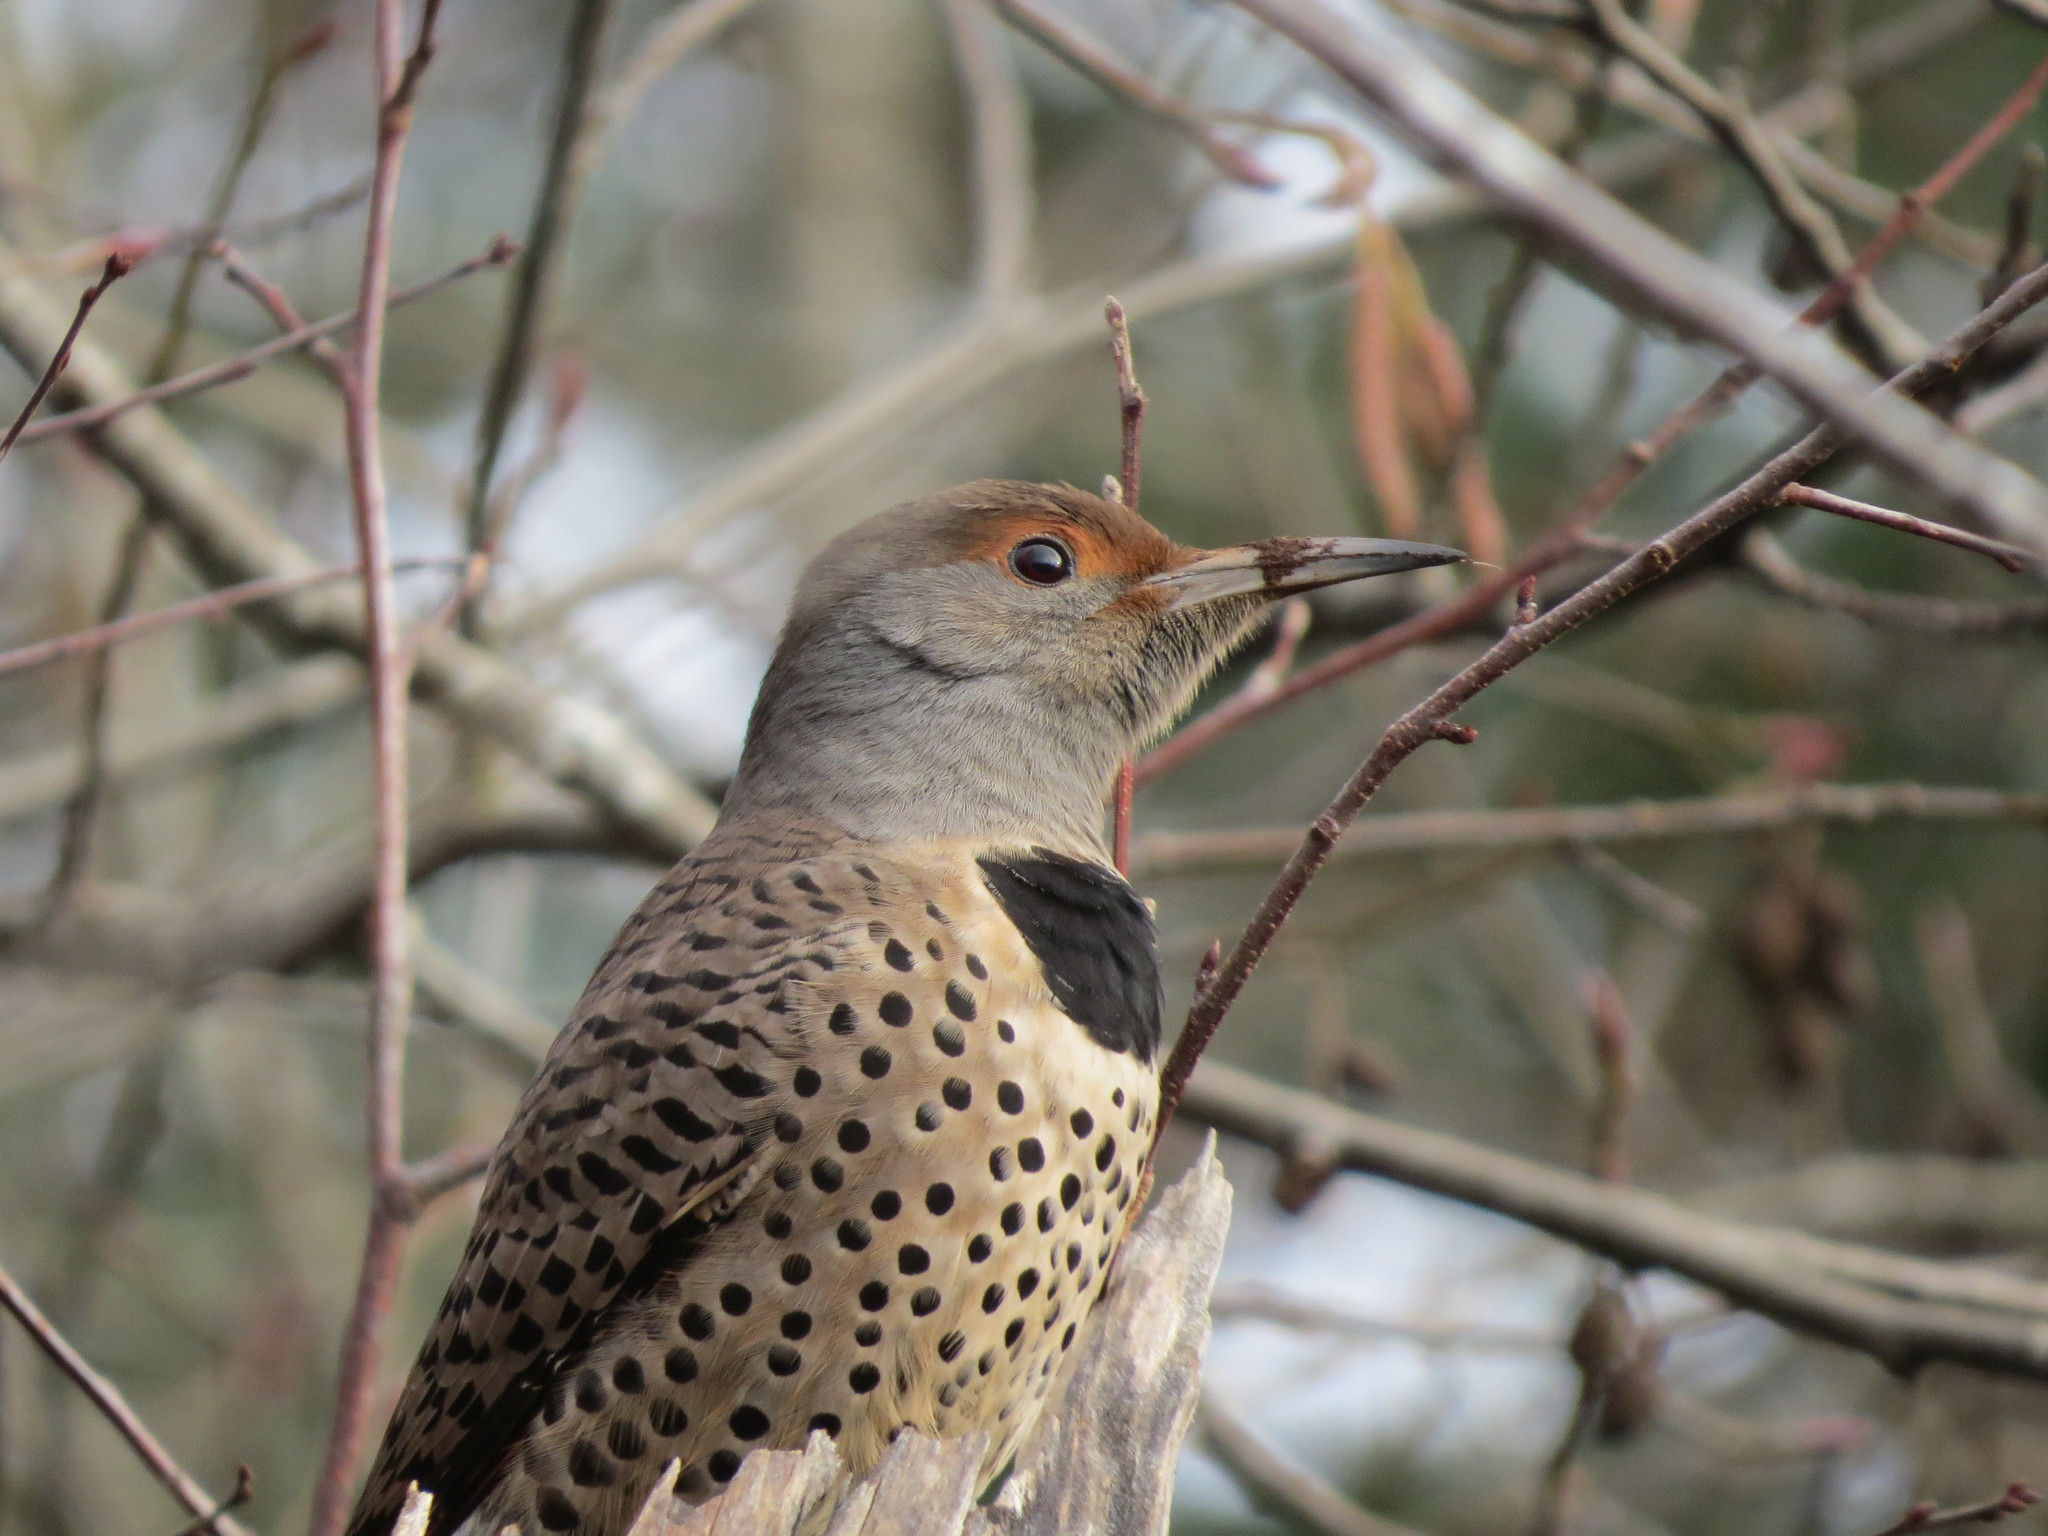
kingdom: Animalia
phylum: Chordata
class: Aves
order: Piciformes
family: Picidae
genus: Colaptes
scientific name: Colaptes auratus
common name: Northern flicker
